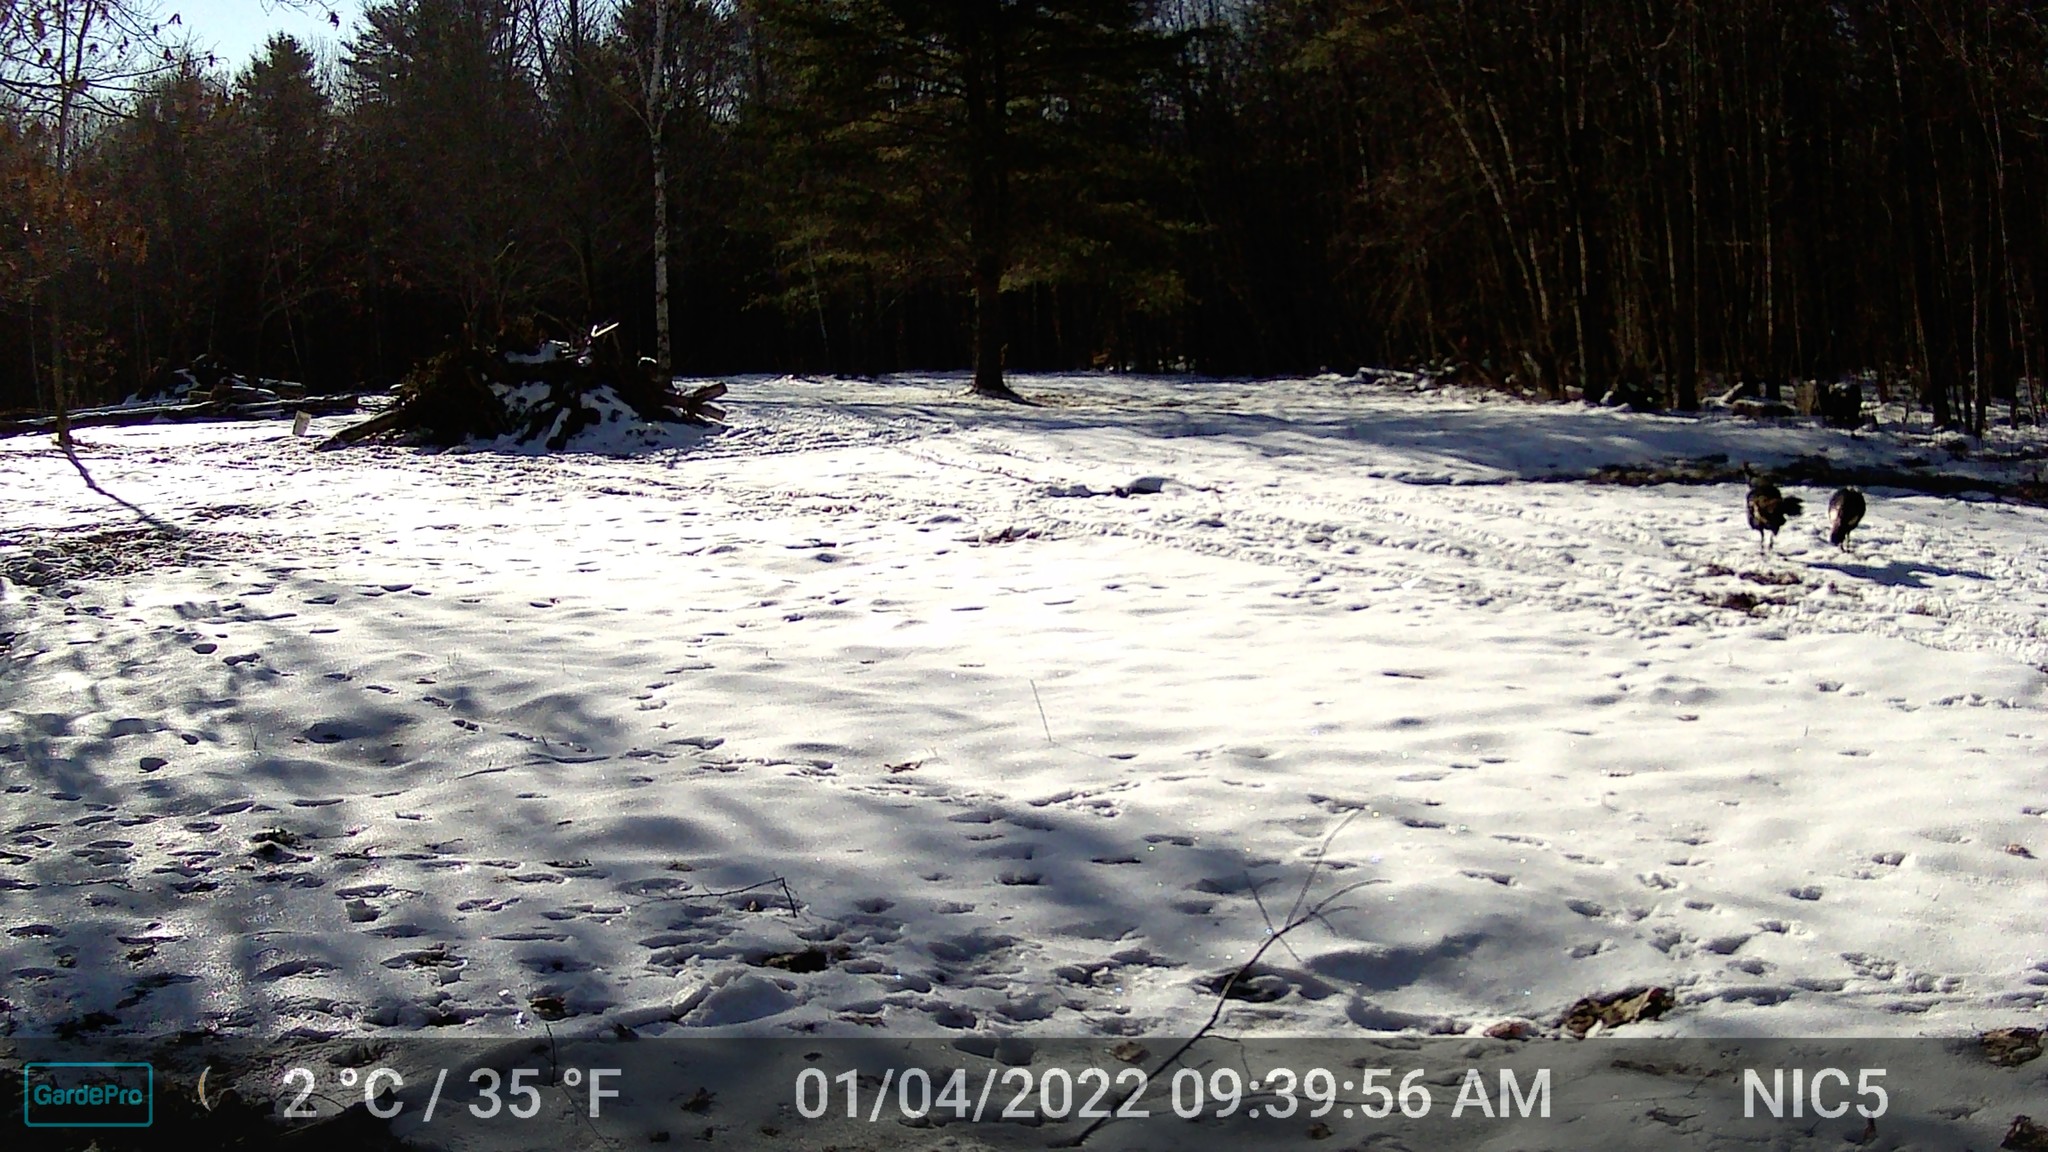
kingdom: Animalia
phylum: Chordata
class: Aves
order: Galliformes
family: Phasianidae
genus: Meleagris
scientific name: Meleagris gallopavo
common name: Wild turkey
